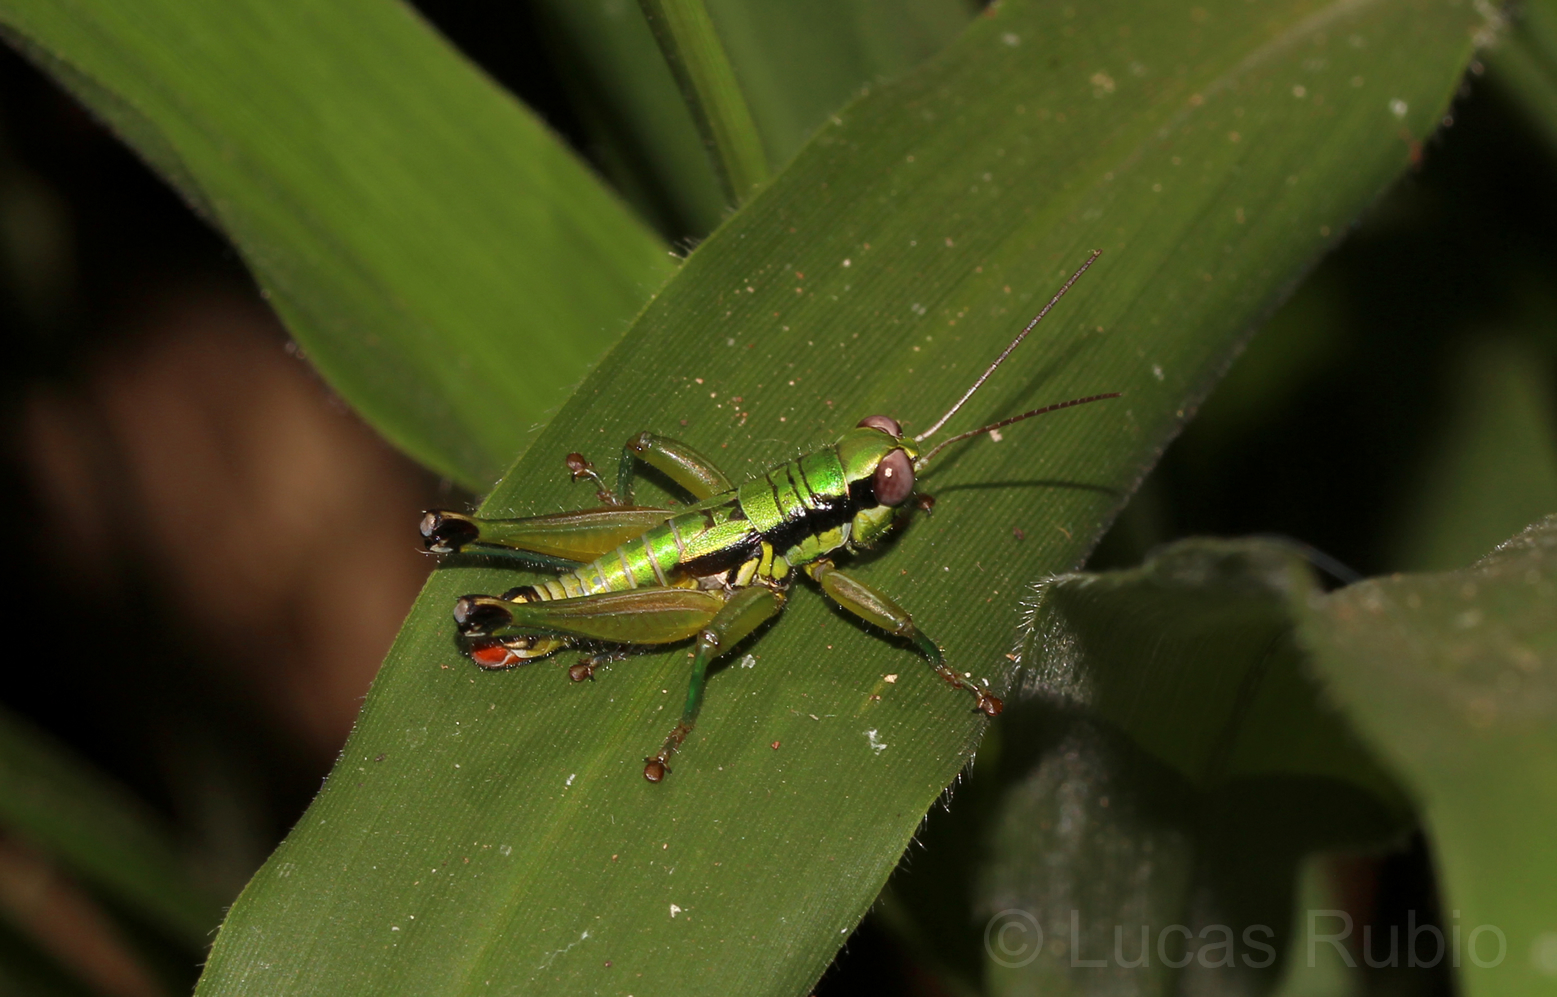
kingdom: Animalia
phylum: Arthropoda
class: Insecta
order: Orthoptera
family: Acrididae
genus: Parascopas
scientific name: Parascopas sanguineus
